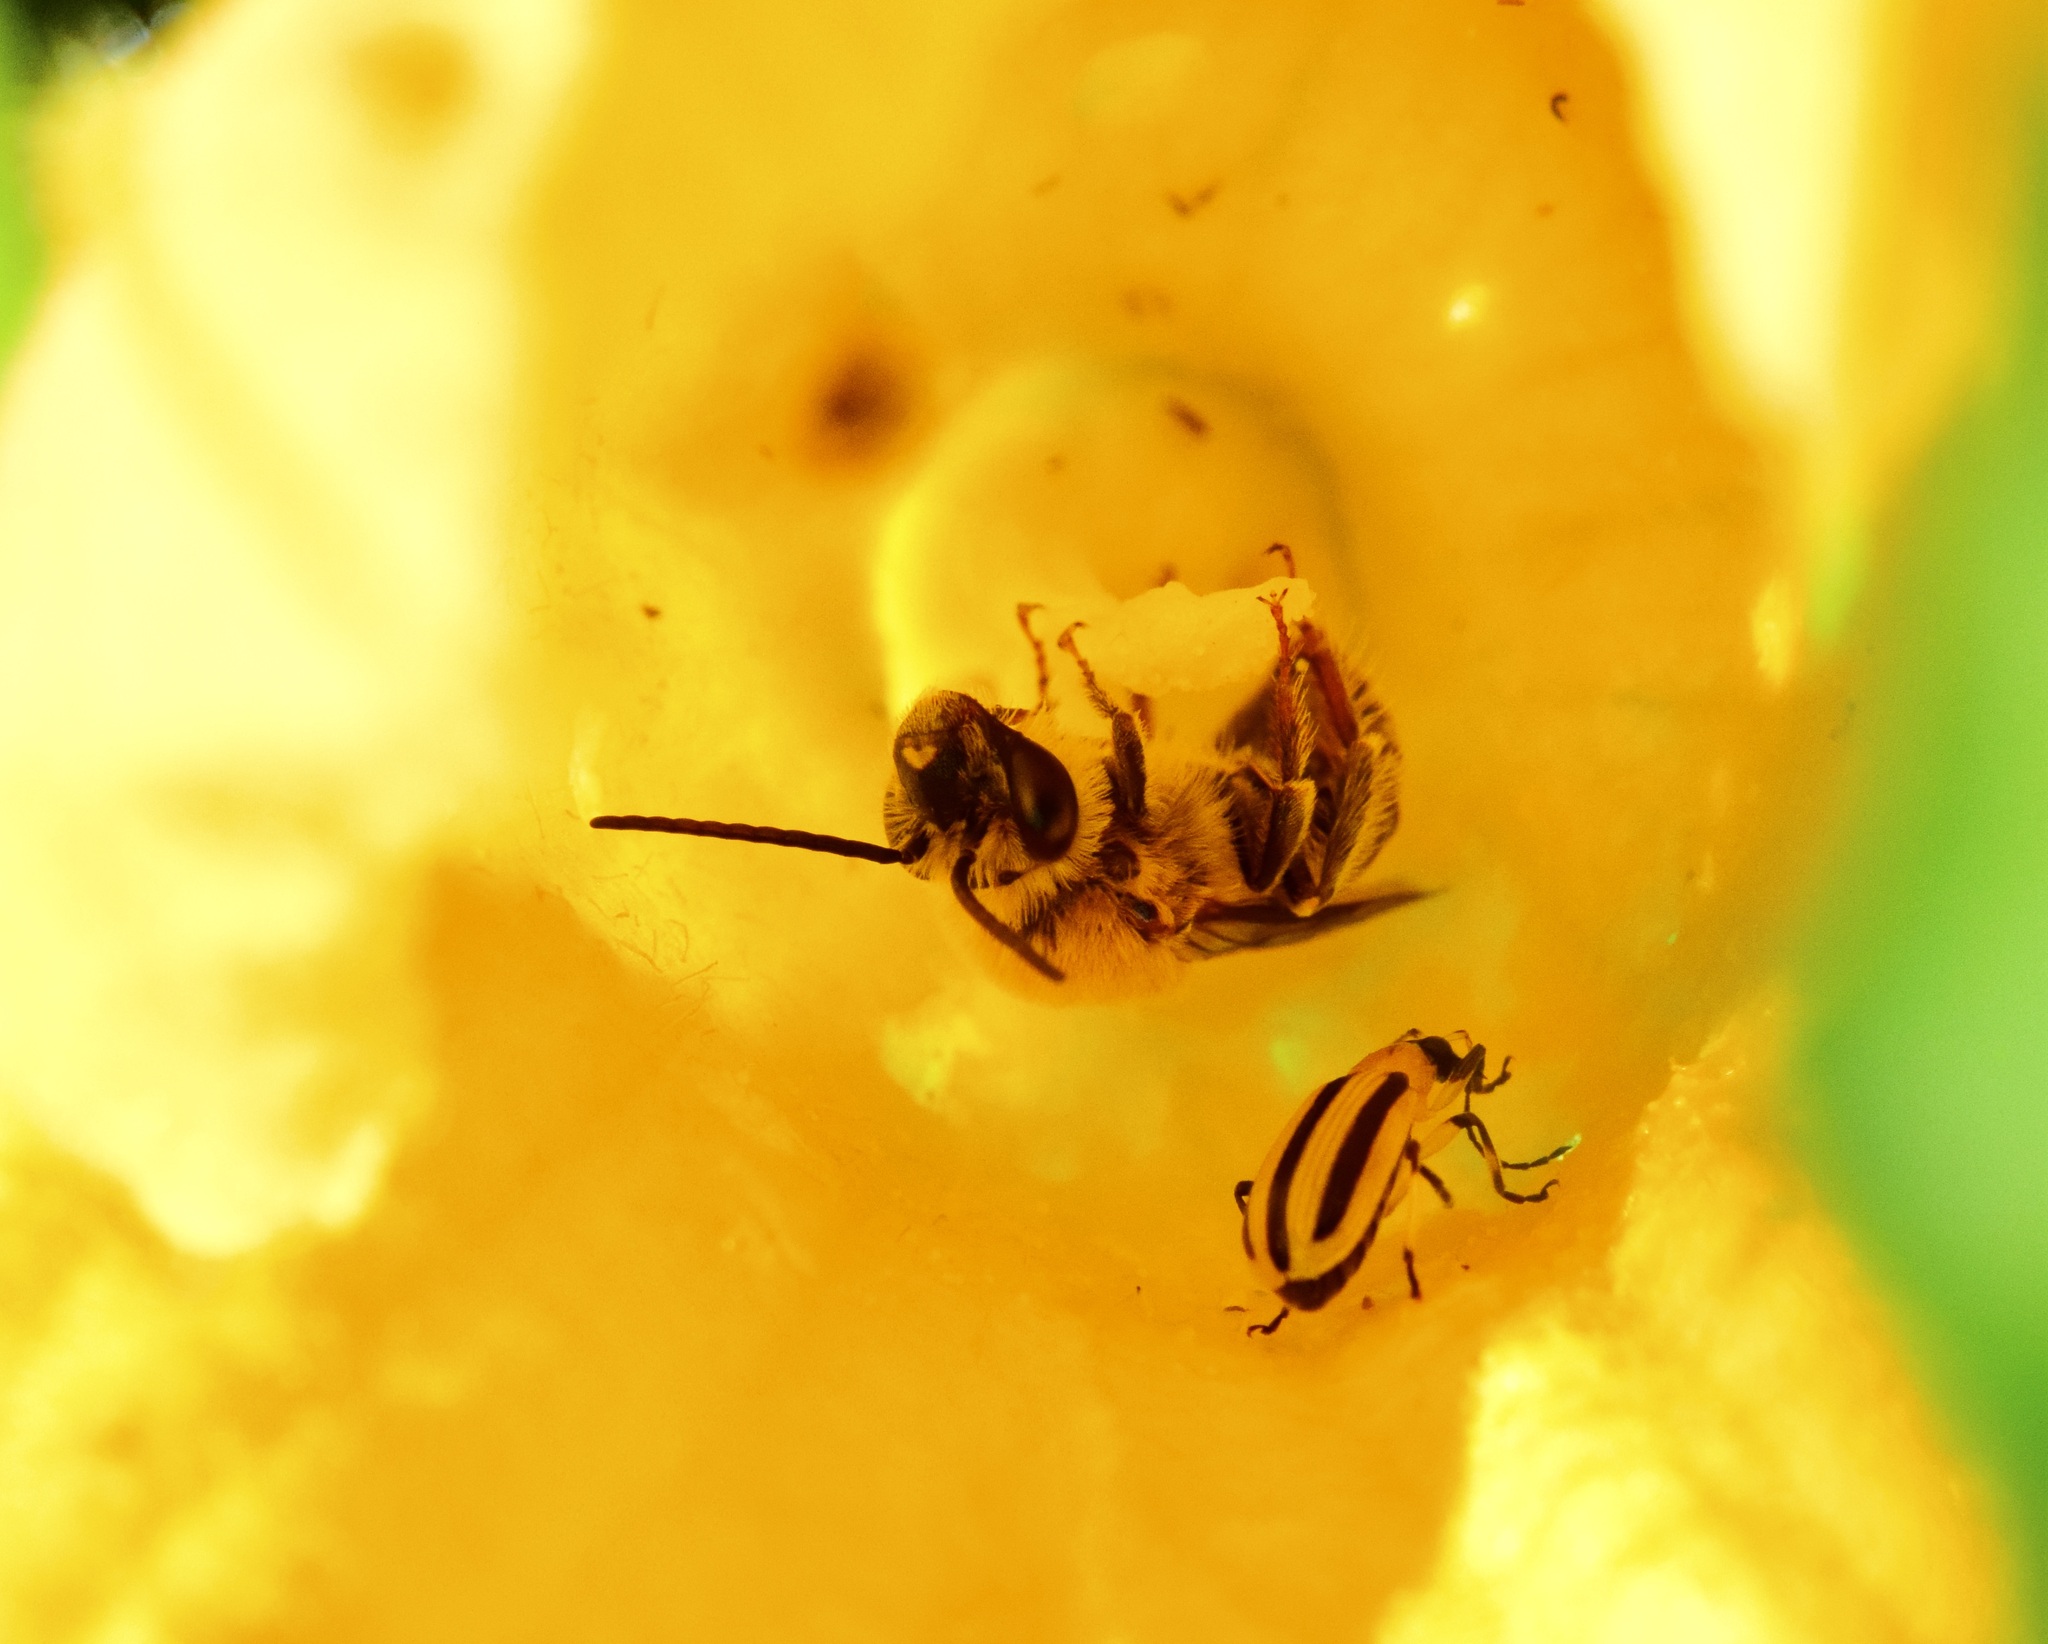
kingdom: Animalia
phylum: Arthropoda
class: Insecta
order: Hymenoptera
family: Apidae
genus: Peponapis
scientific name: Peponapis pruinosa
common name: Pruinose squash bee
